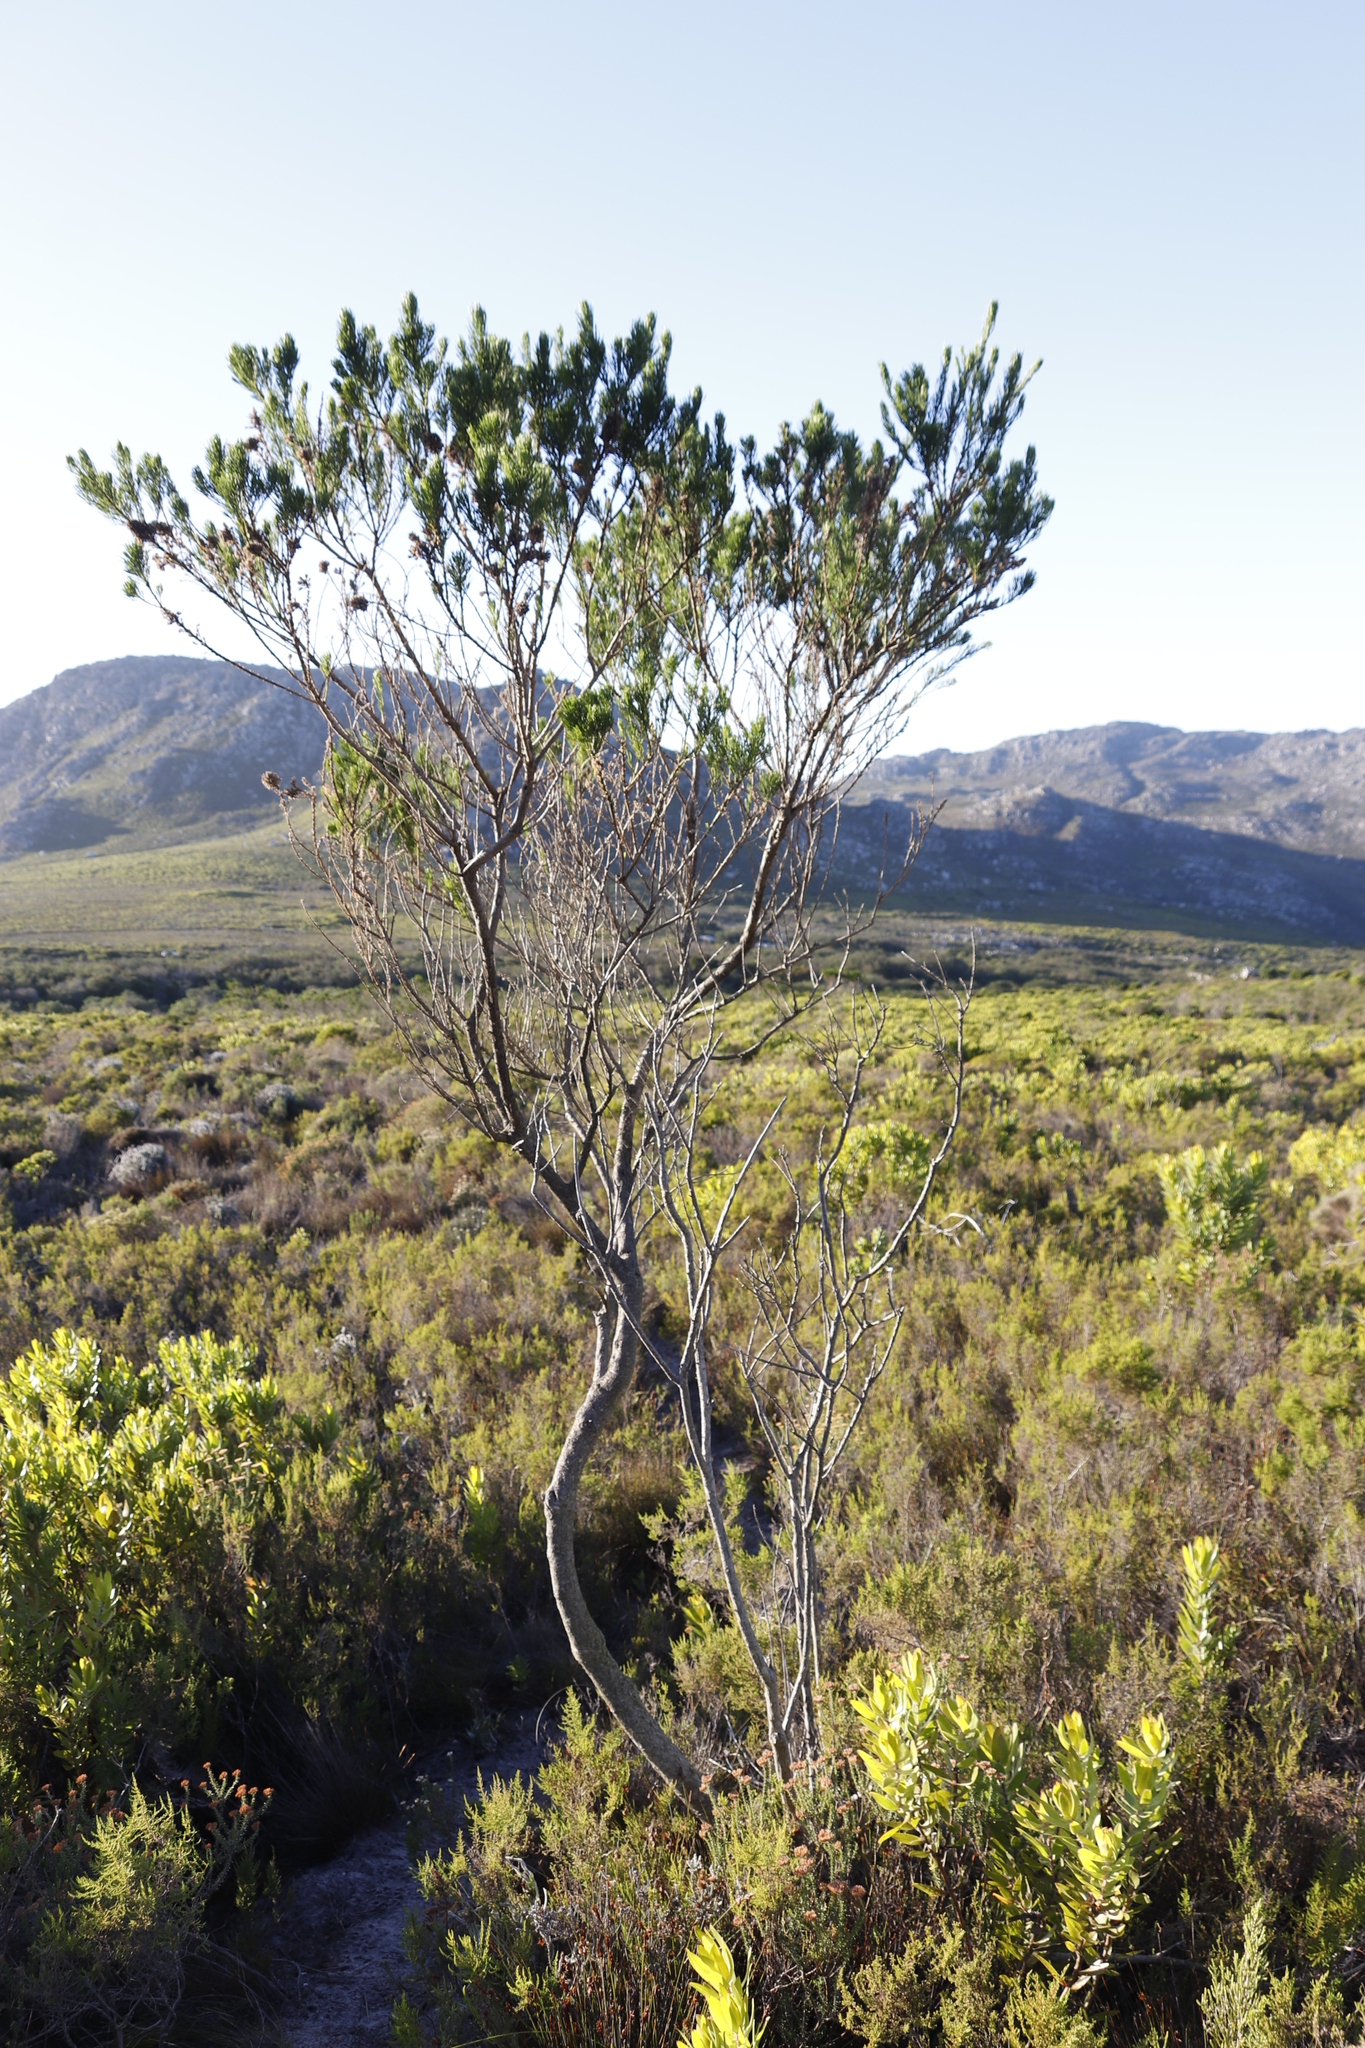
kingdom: Plantae
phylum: Tracheophyta
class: Magnoliopsida
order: Fabales
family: Fabaceae
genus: Psoralea
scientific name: Psoralea pinnata
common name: African scurfpea
